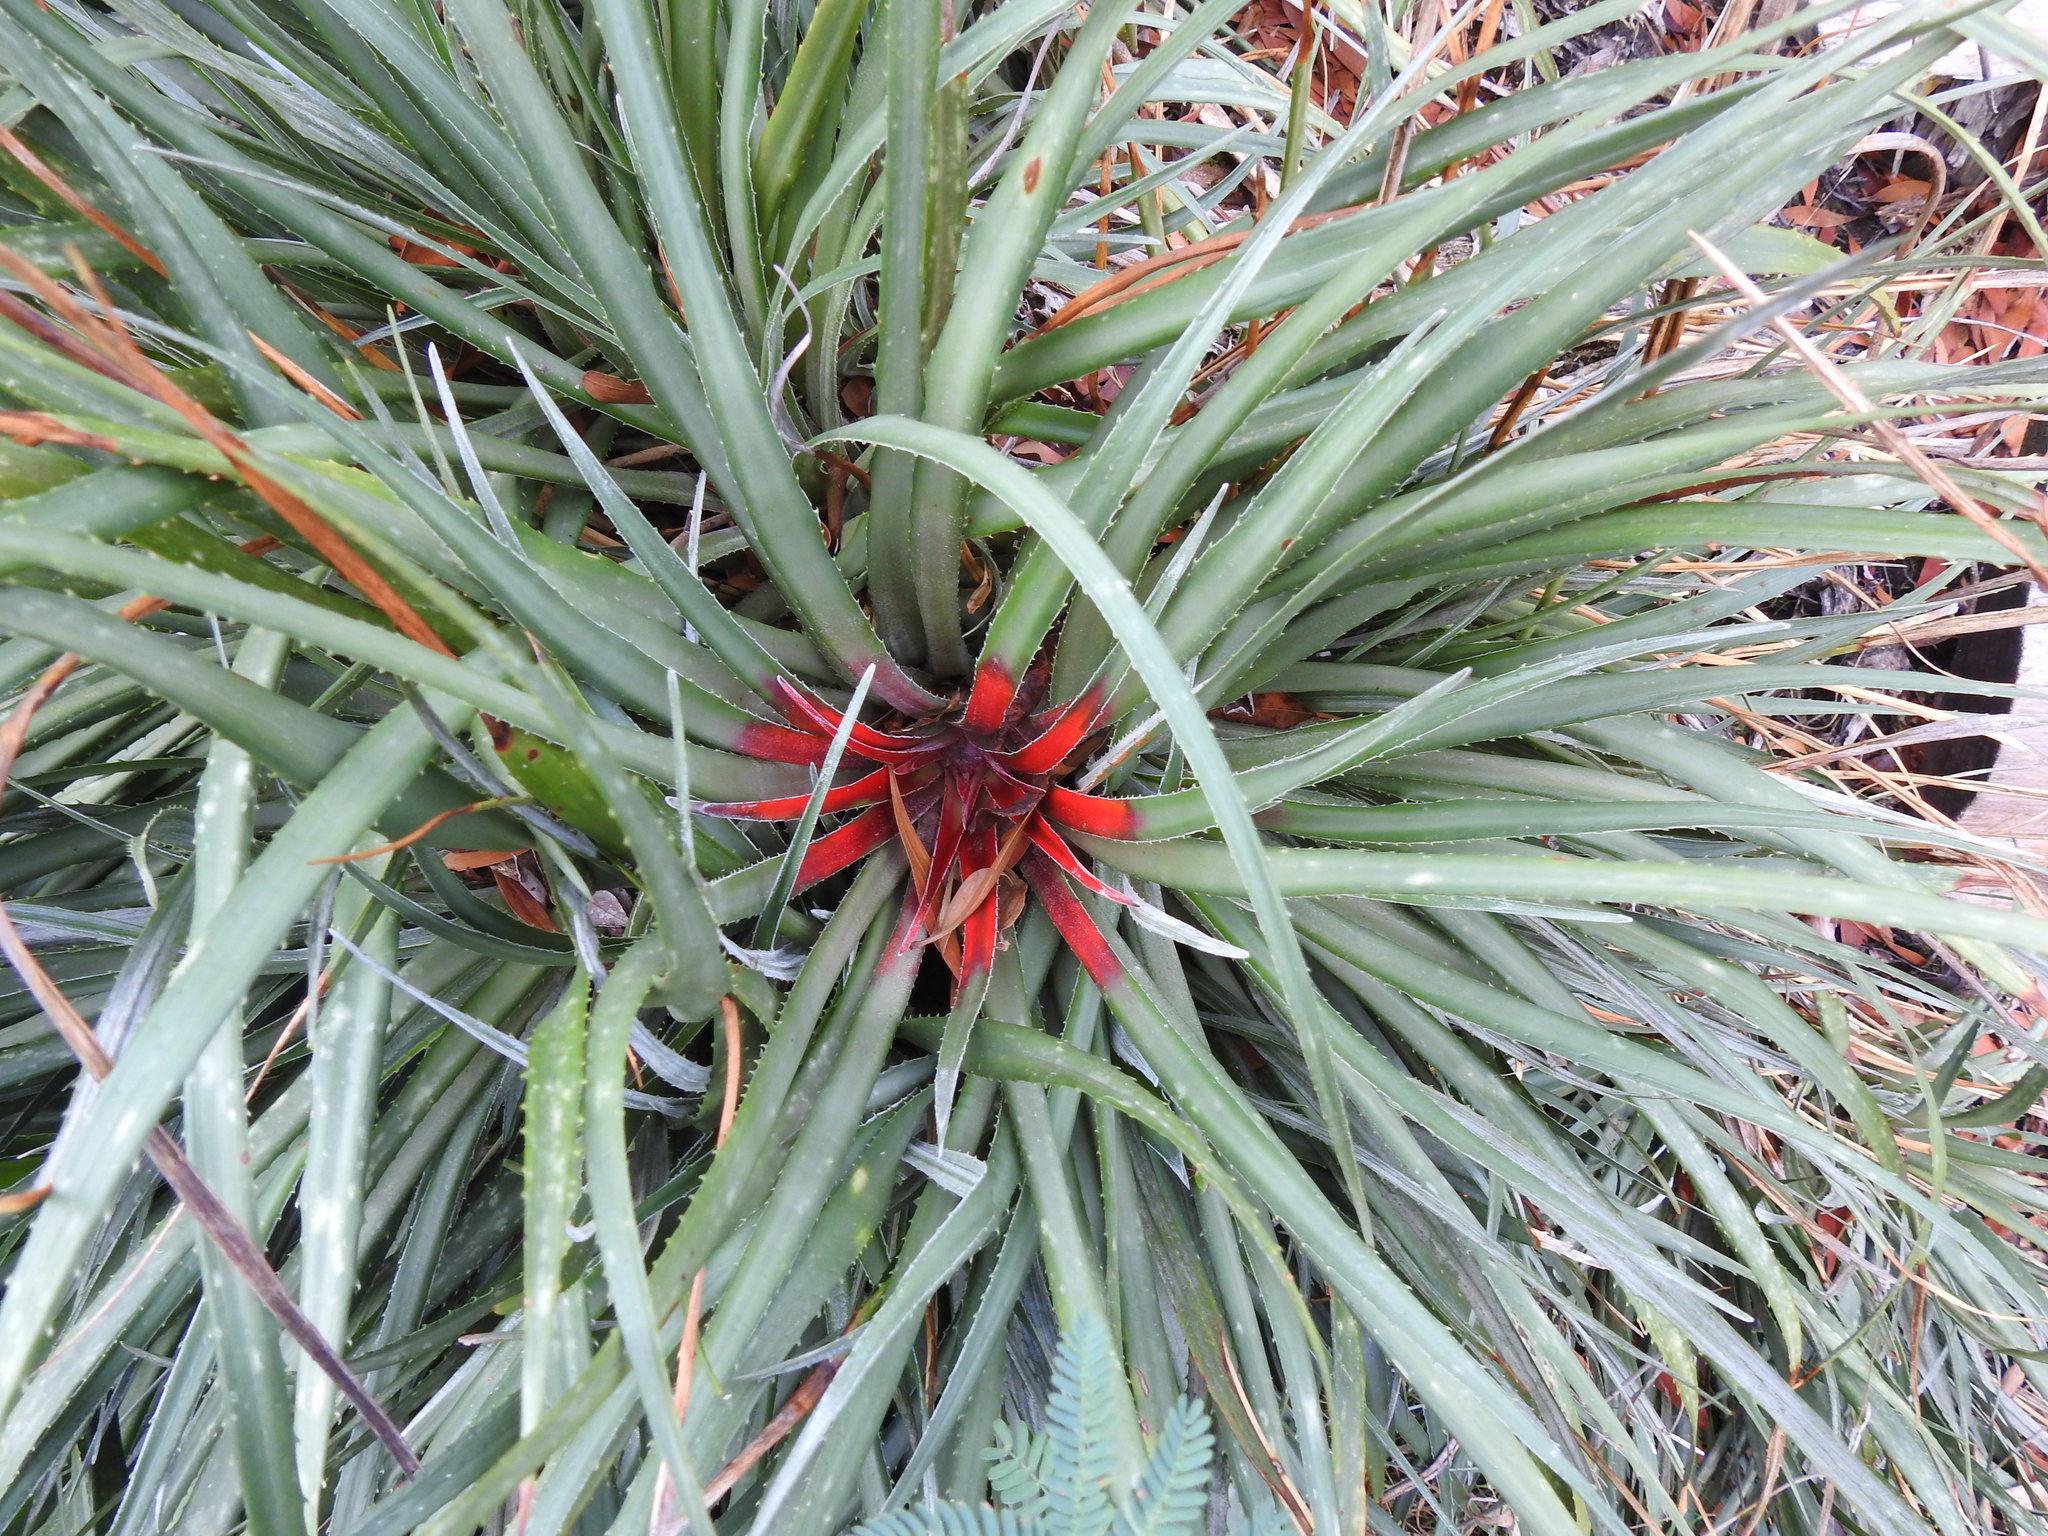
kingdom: Plantae
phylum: Tracheophyta
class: Liliopsida
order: Poales
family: Bromeliaceae
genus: Fascicularia
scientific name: Fascicularia bicolor
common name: Rhodostachys
